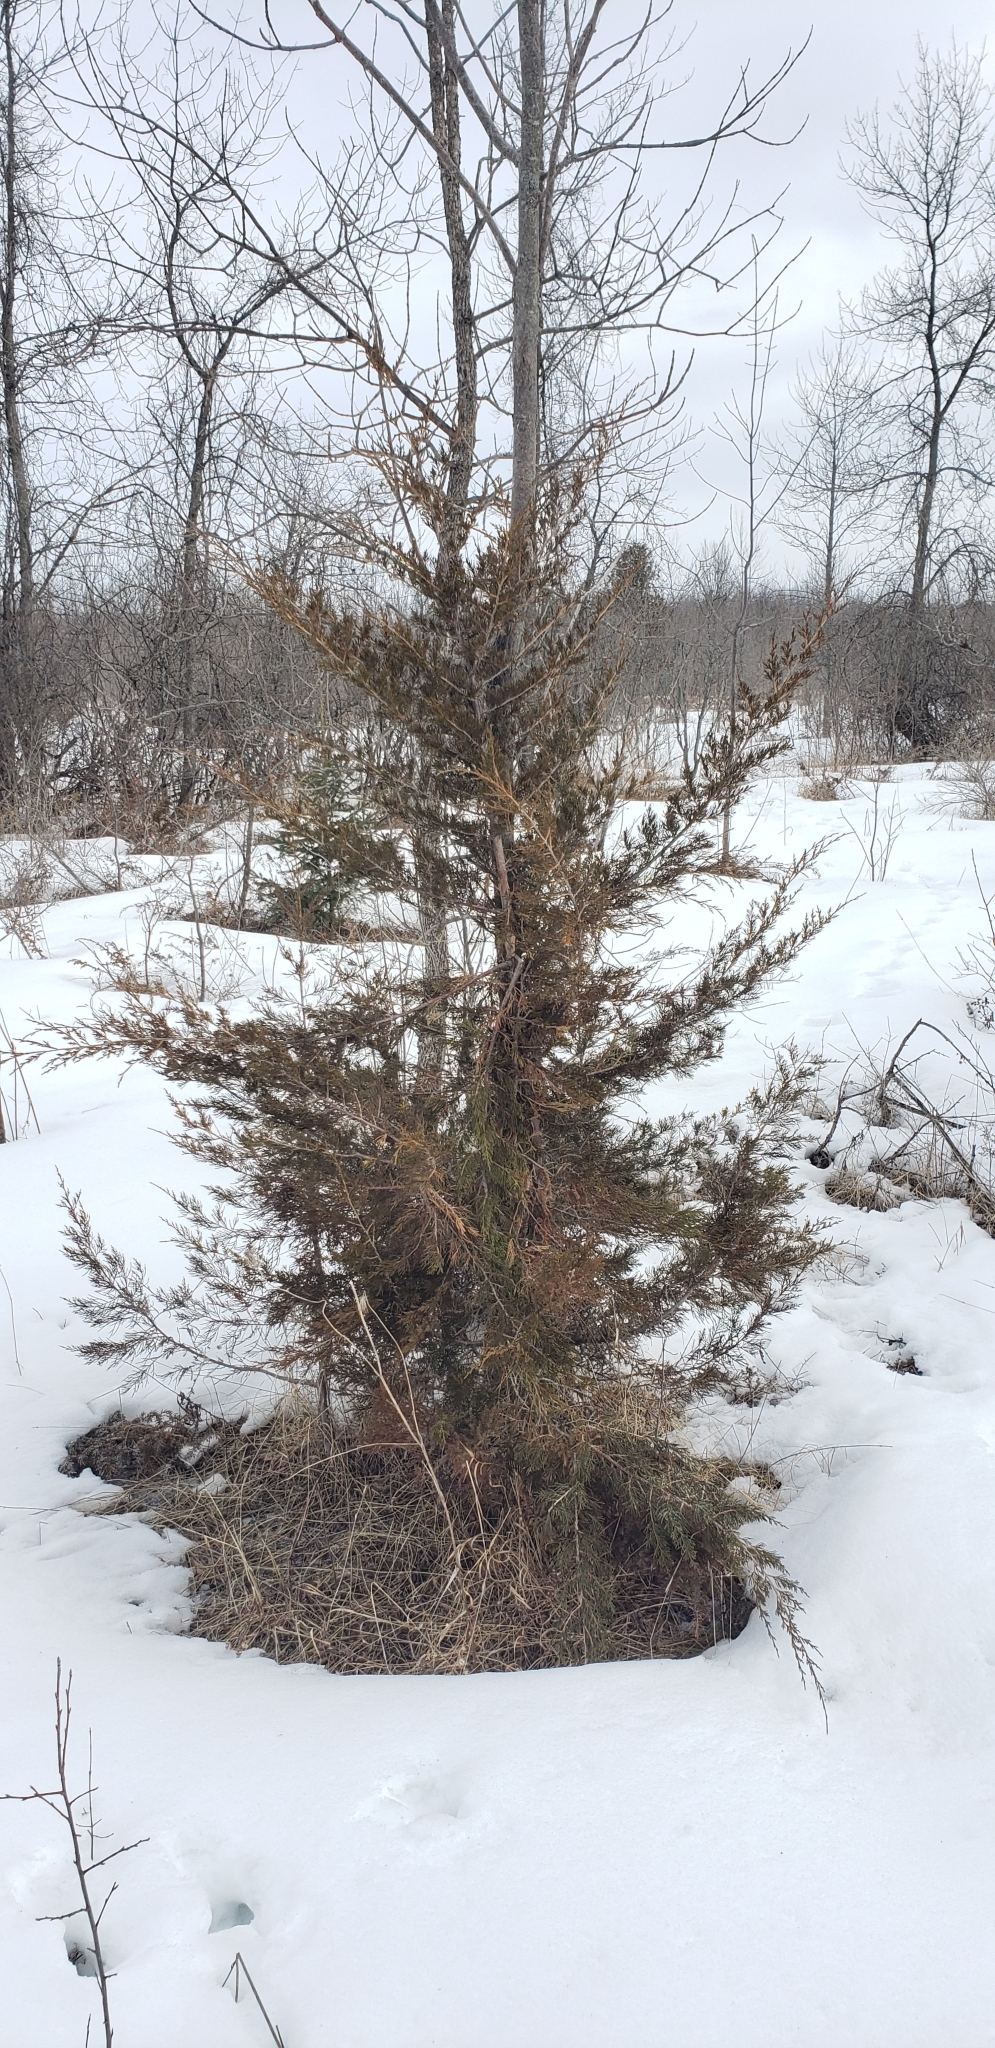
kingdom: Plantae
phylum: Tracheophyta
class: Pinopsida
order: Pinales
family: Cupressaceae
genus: Juniperus
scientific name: Juniperus virginiana
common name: Red juniper
